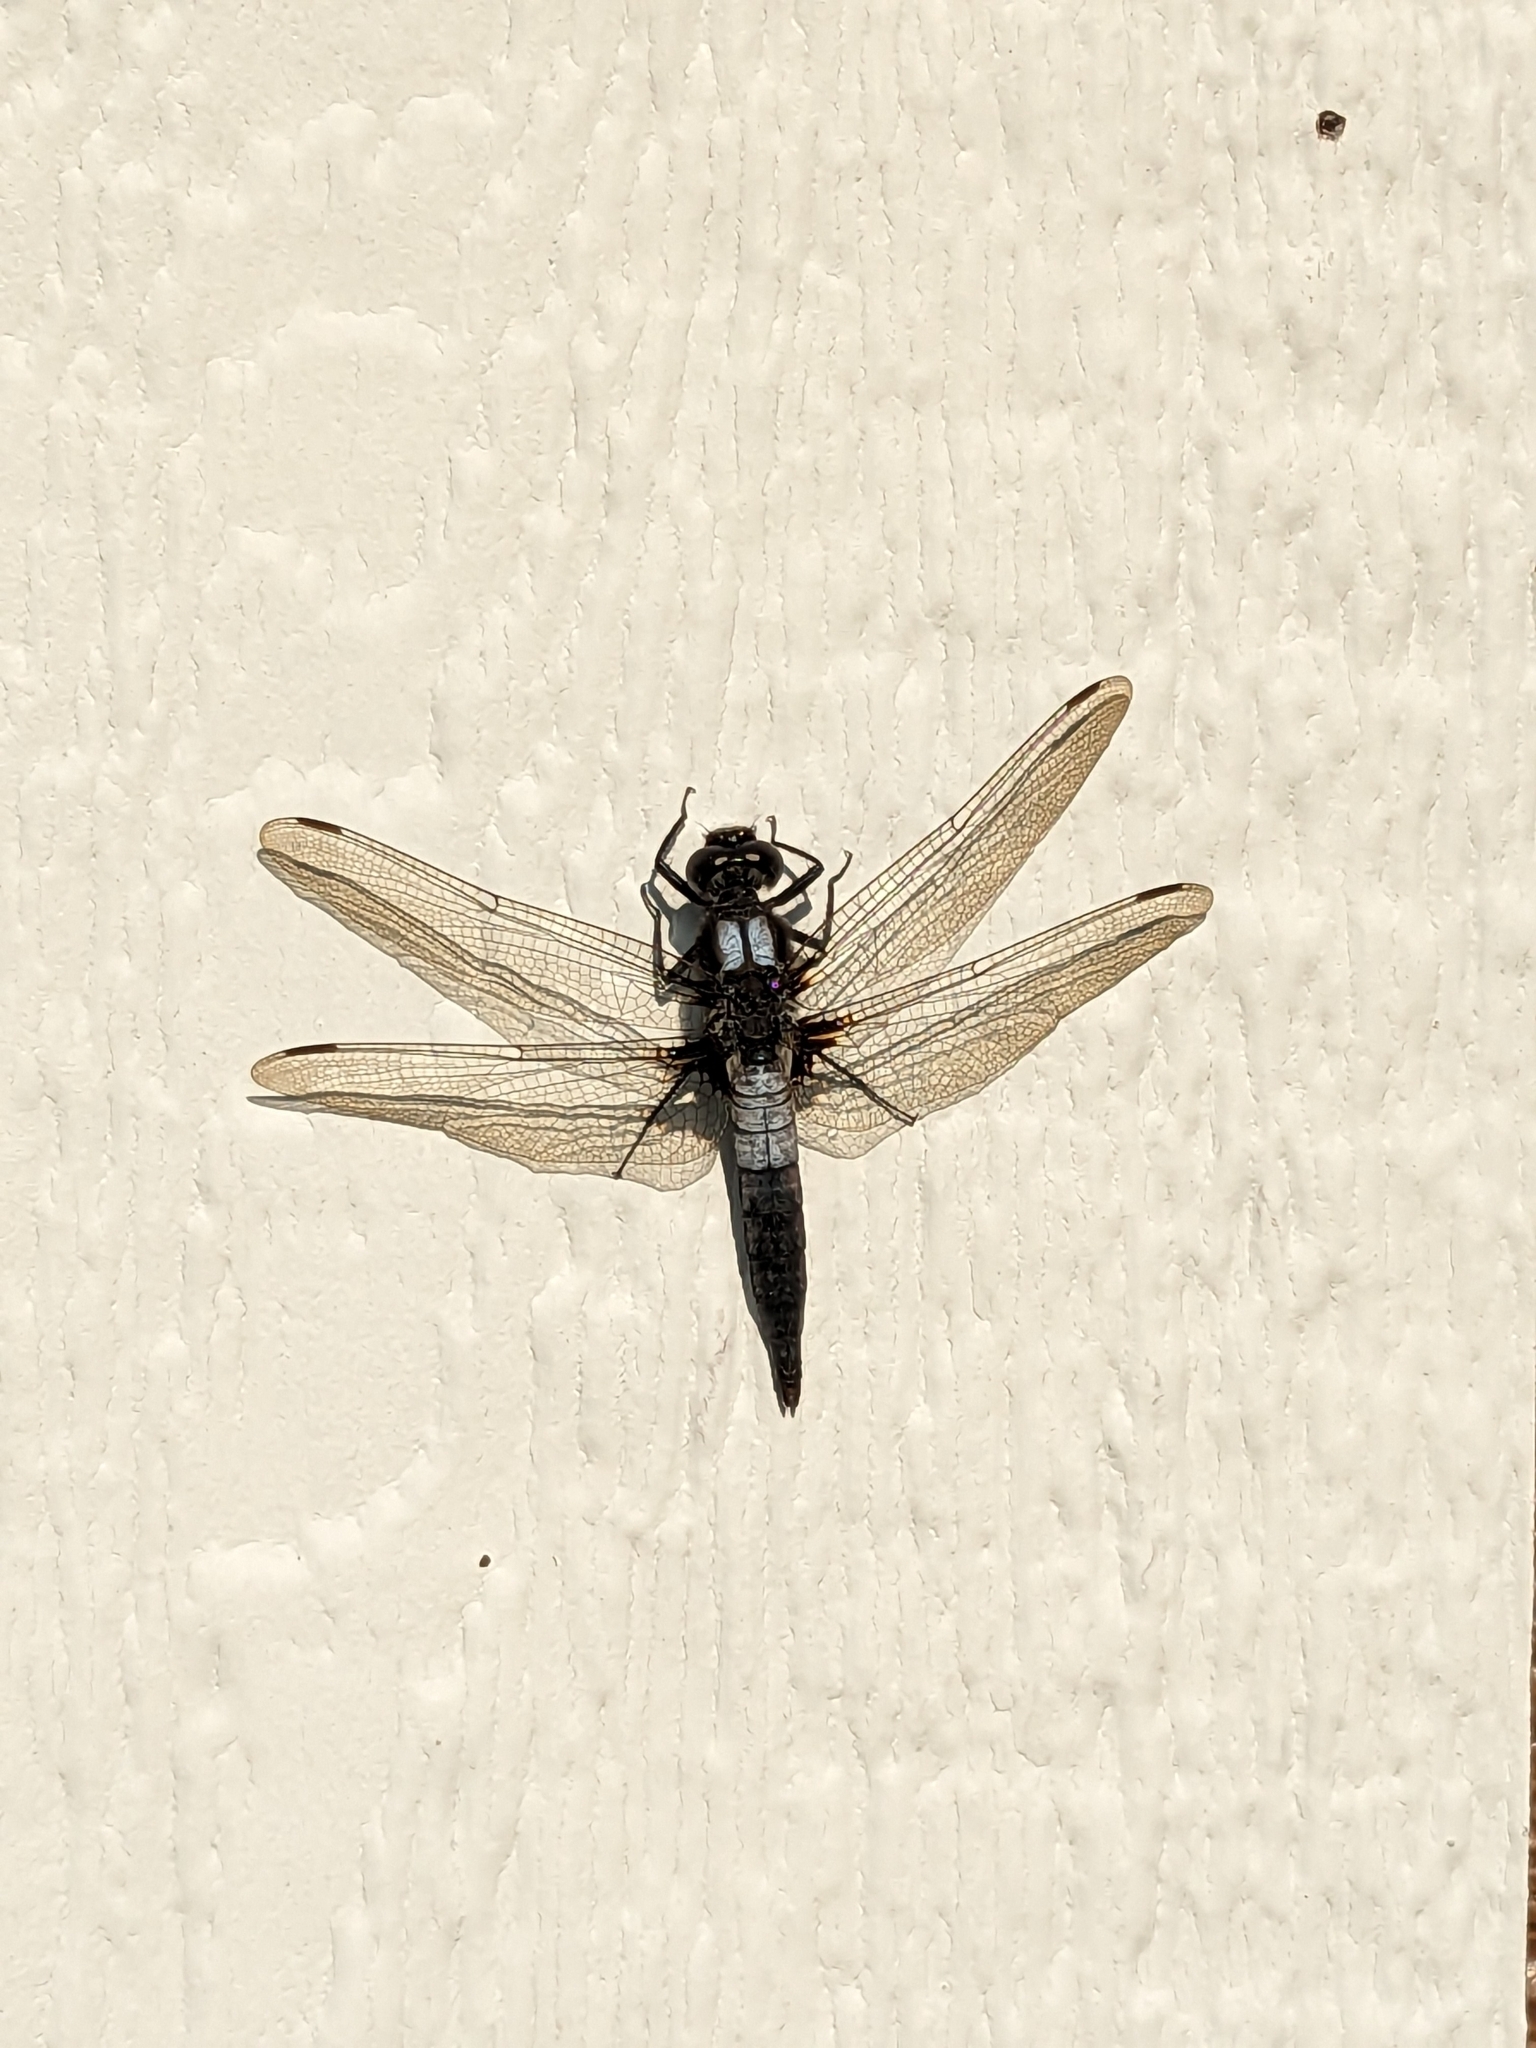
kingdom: Animalia
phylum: Arthropoda
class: Insecta
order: Odonata
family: Libellulidae
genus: Ladona
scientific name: Ladona julia
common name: Chalk-fronted corporal
